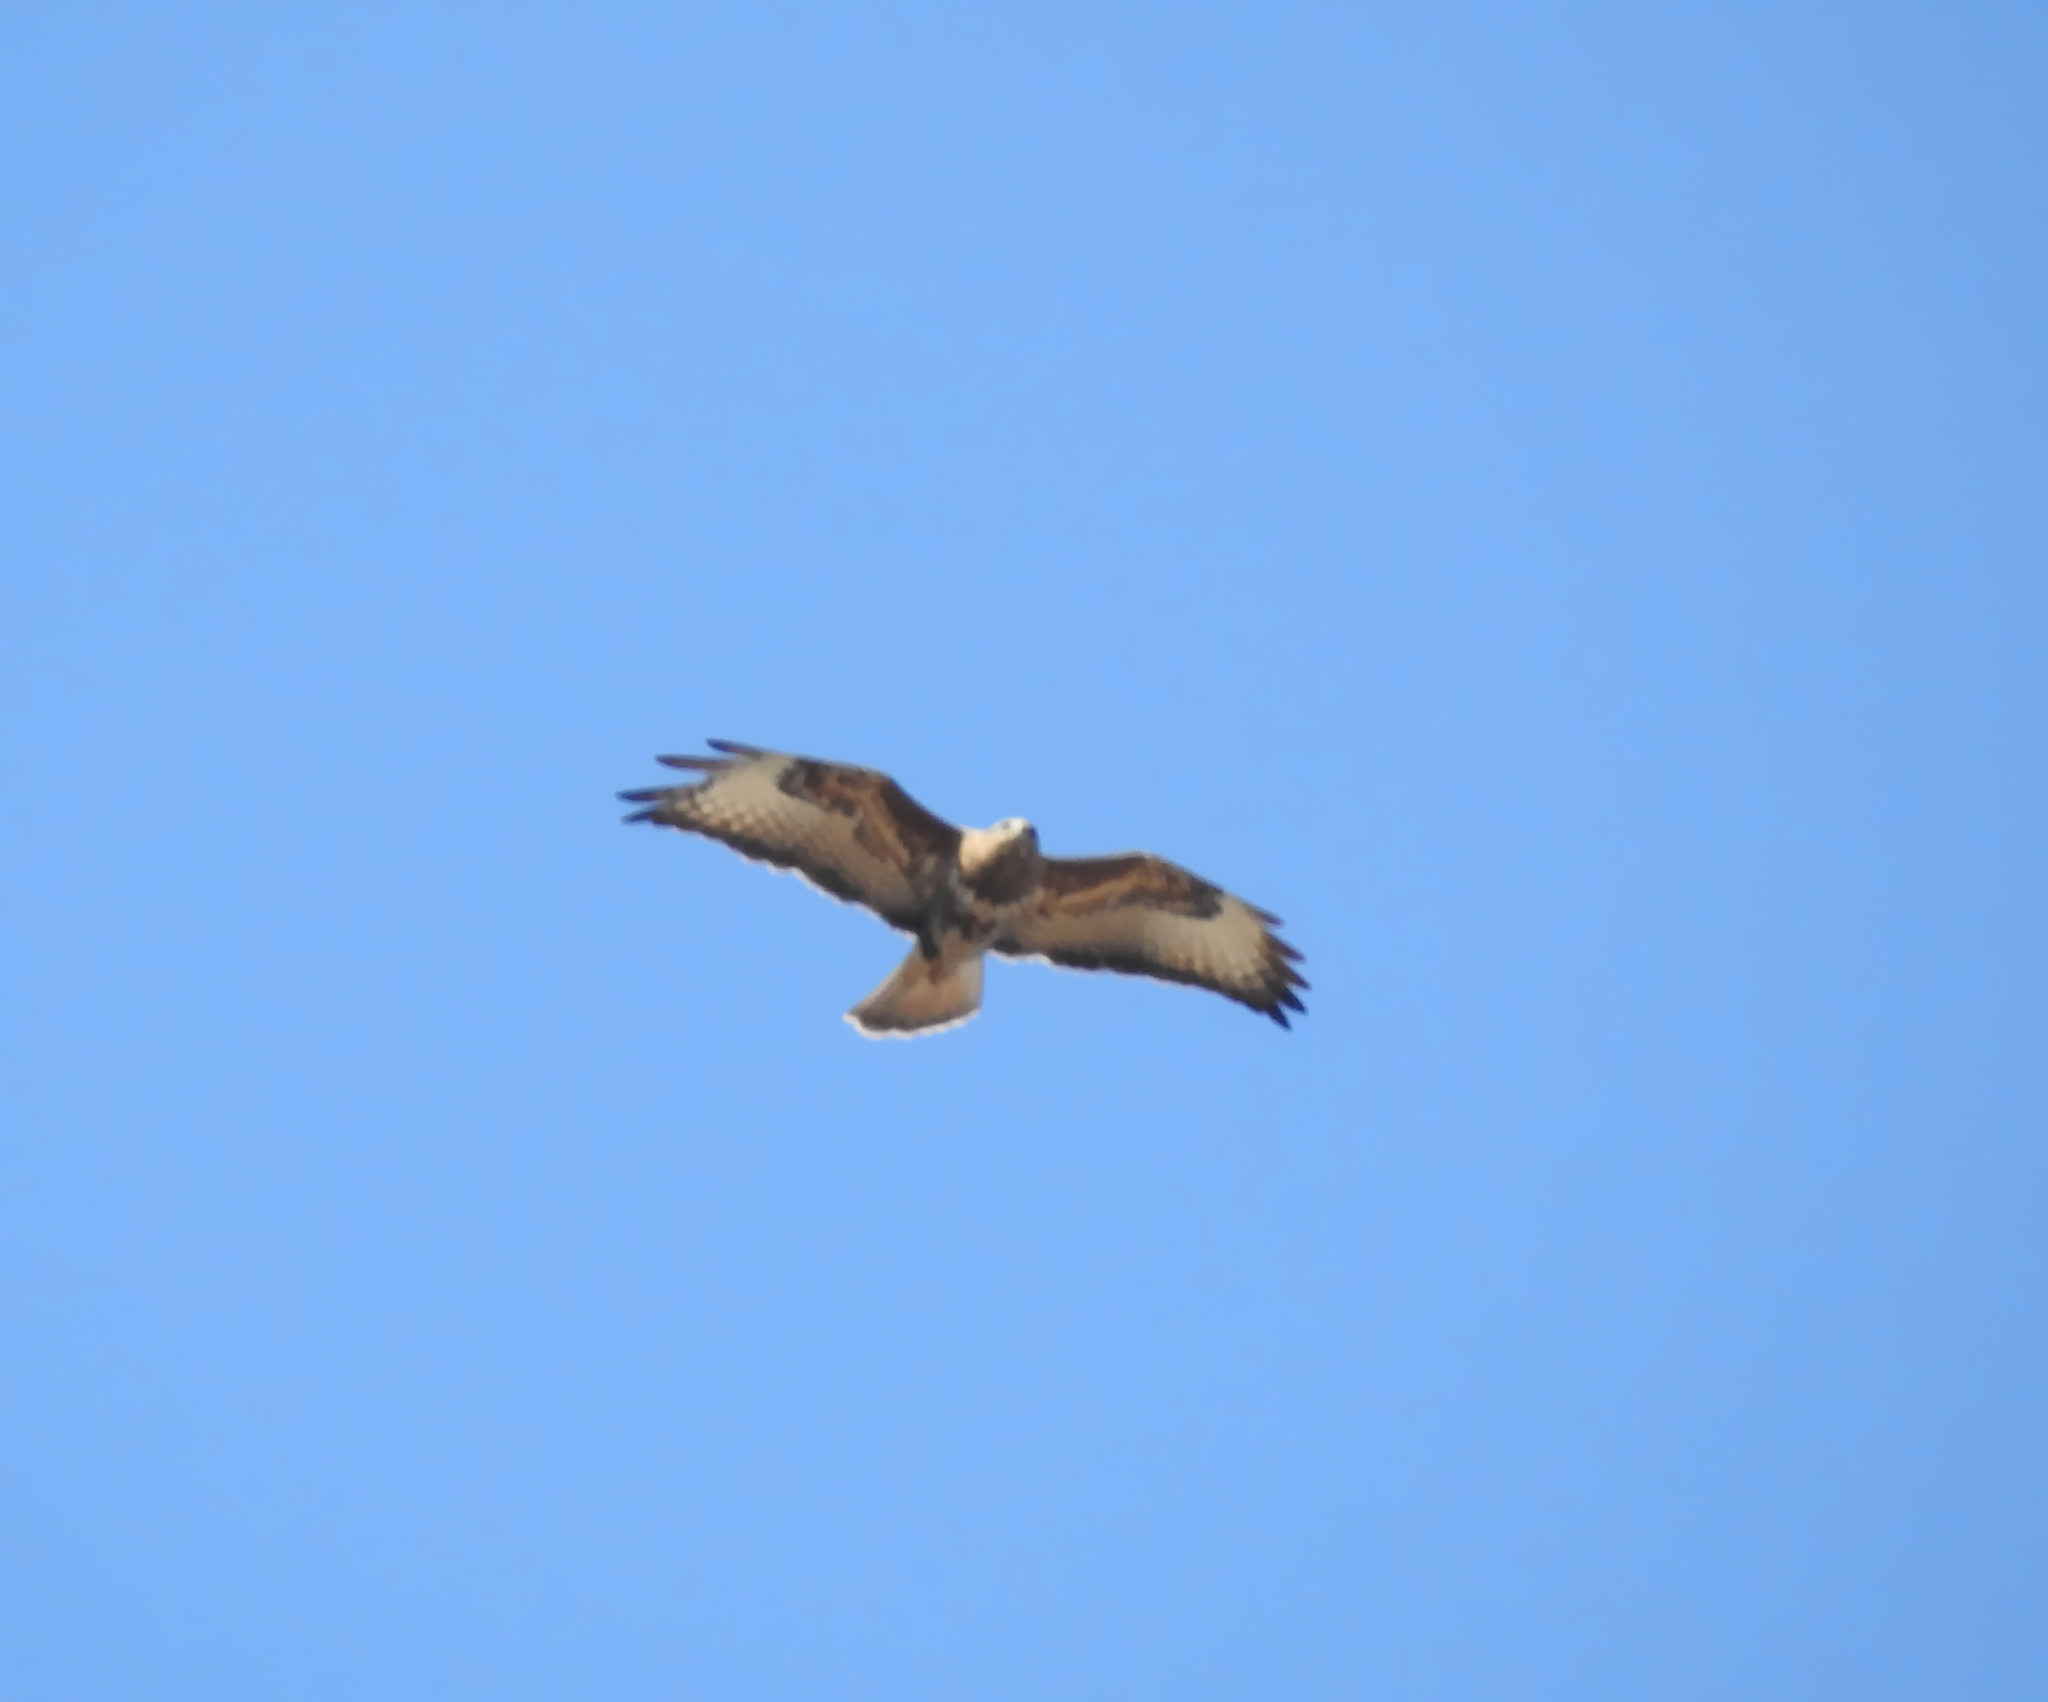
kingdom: Animalia
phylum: Chordata
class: Aves
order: Accipitriformes
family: Accipitridae
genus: Buteo
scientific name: Buteo buteo
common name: Common buzzard
